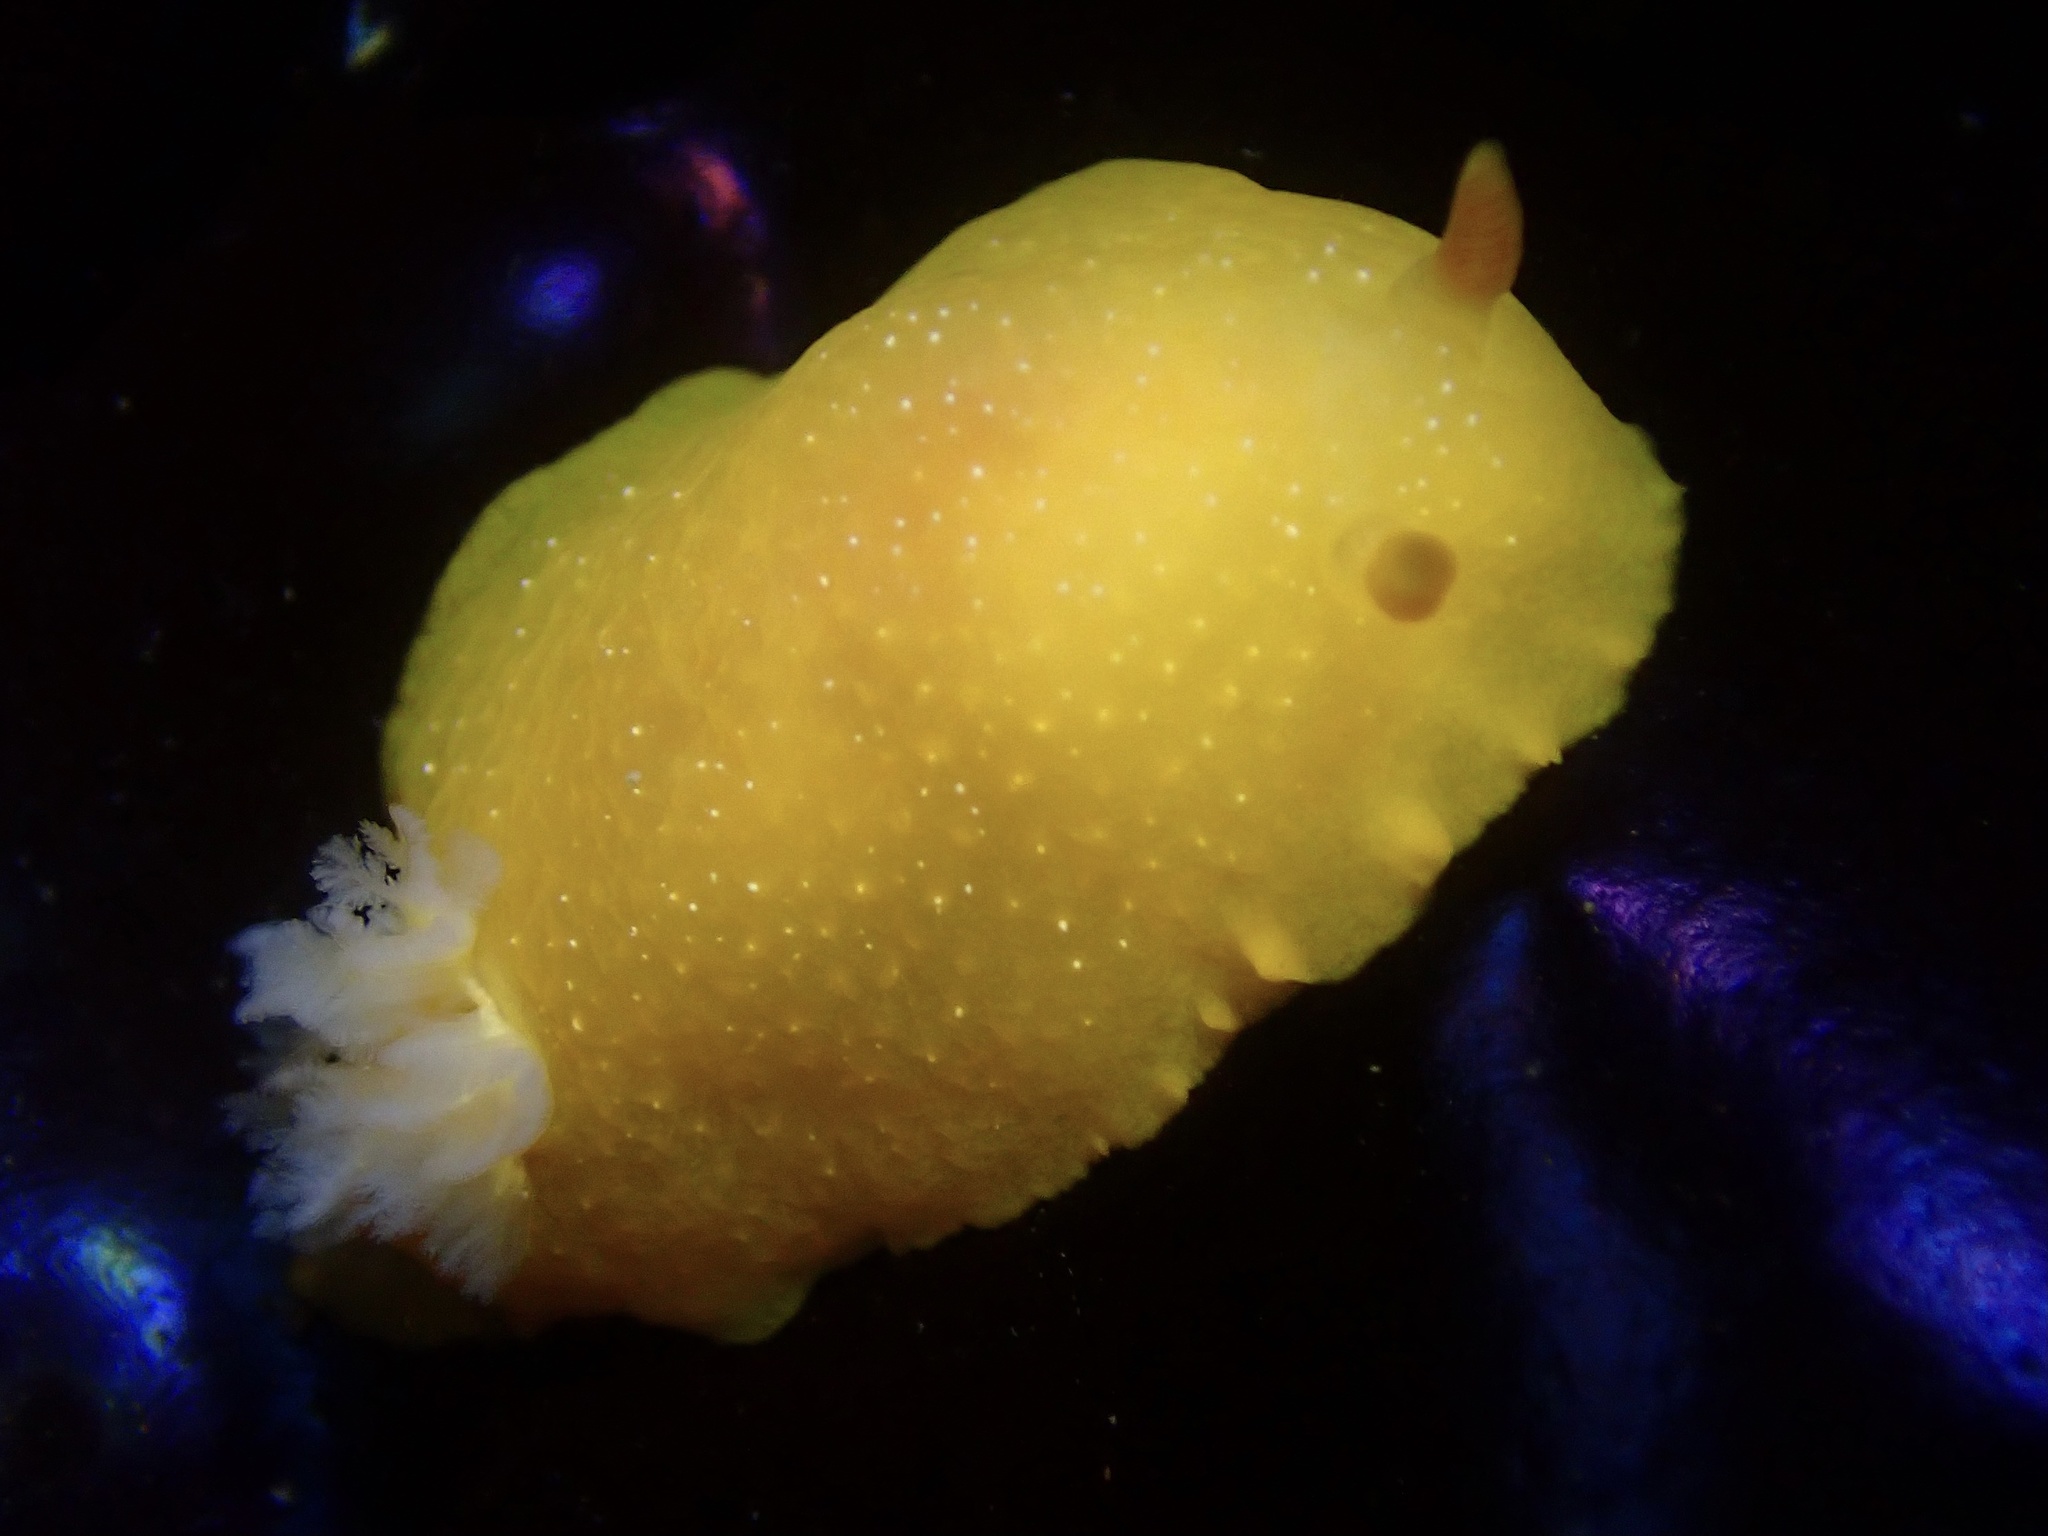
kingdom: Animalia
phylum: Mollusca
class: Gastropoda
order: Nudibranchia
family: Dendrodorididae
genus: Doriopsilla
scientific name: Doriopsilla fulva
